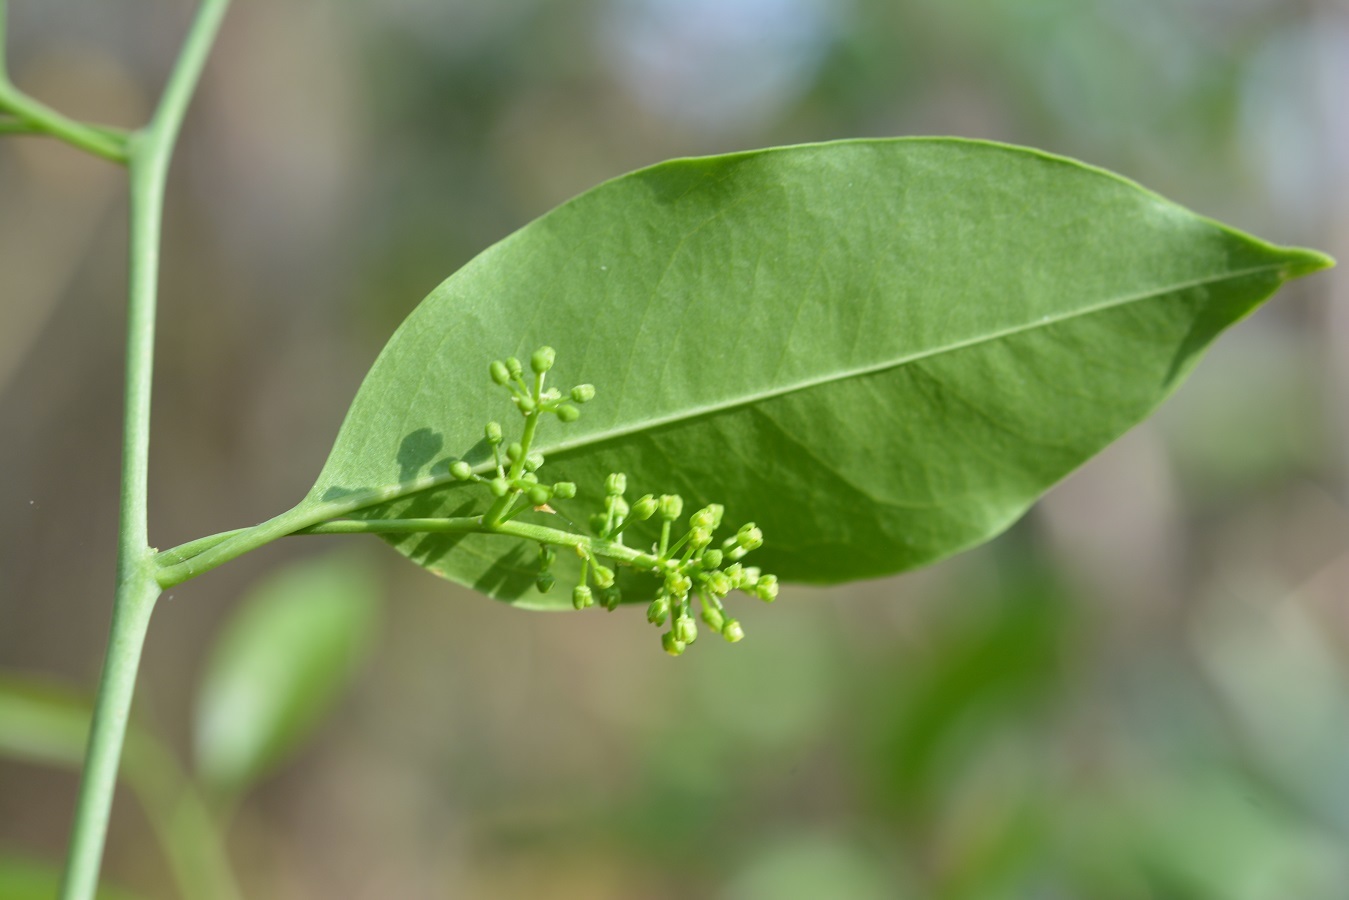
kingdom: Plantae
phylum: Tracheophyta
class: Magnoliopsida
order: Santalales
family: Opiliaceae
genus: Agonandra
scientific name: Agonandra racemosa
